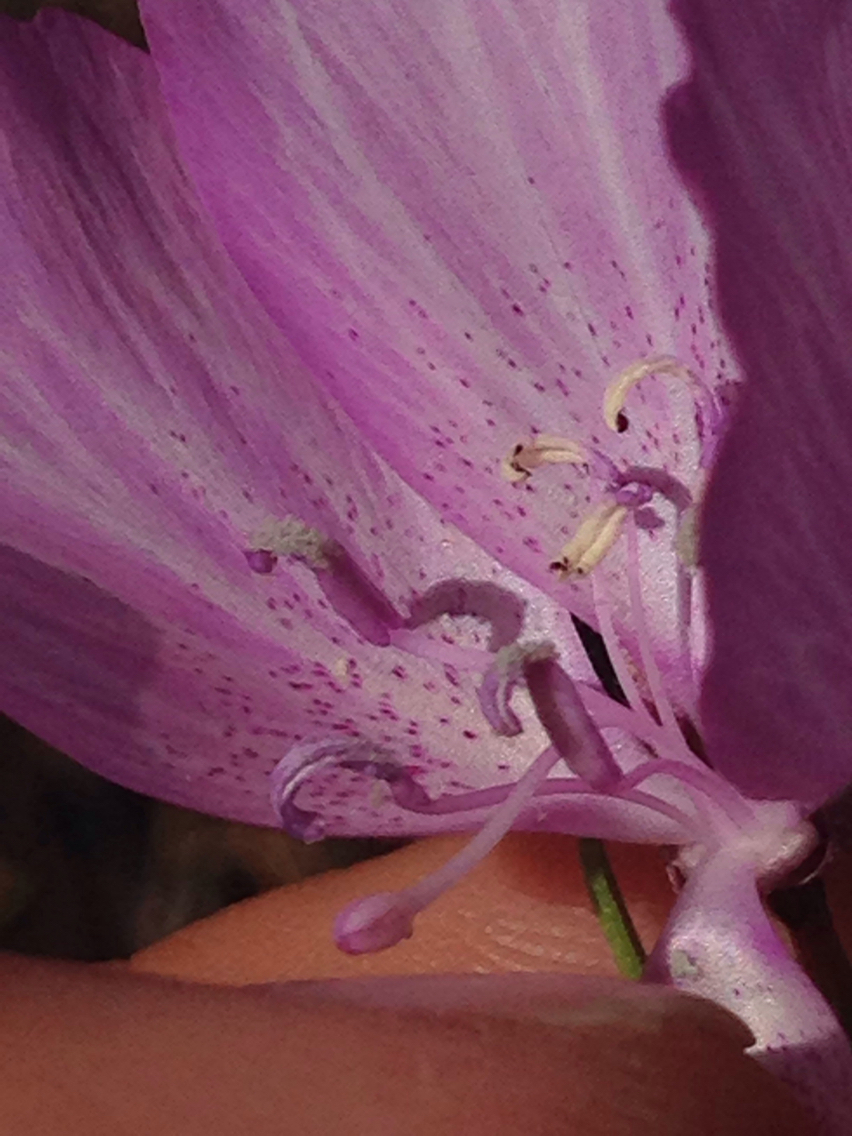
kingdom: Plantae
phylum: Tracheophyta
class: Magnoliopsida
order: Myrtales
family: Onagraceae
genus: Clarkia
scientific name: Clarkia dudleyana
